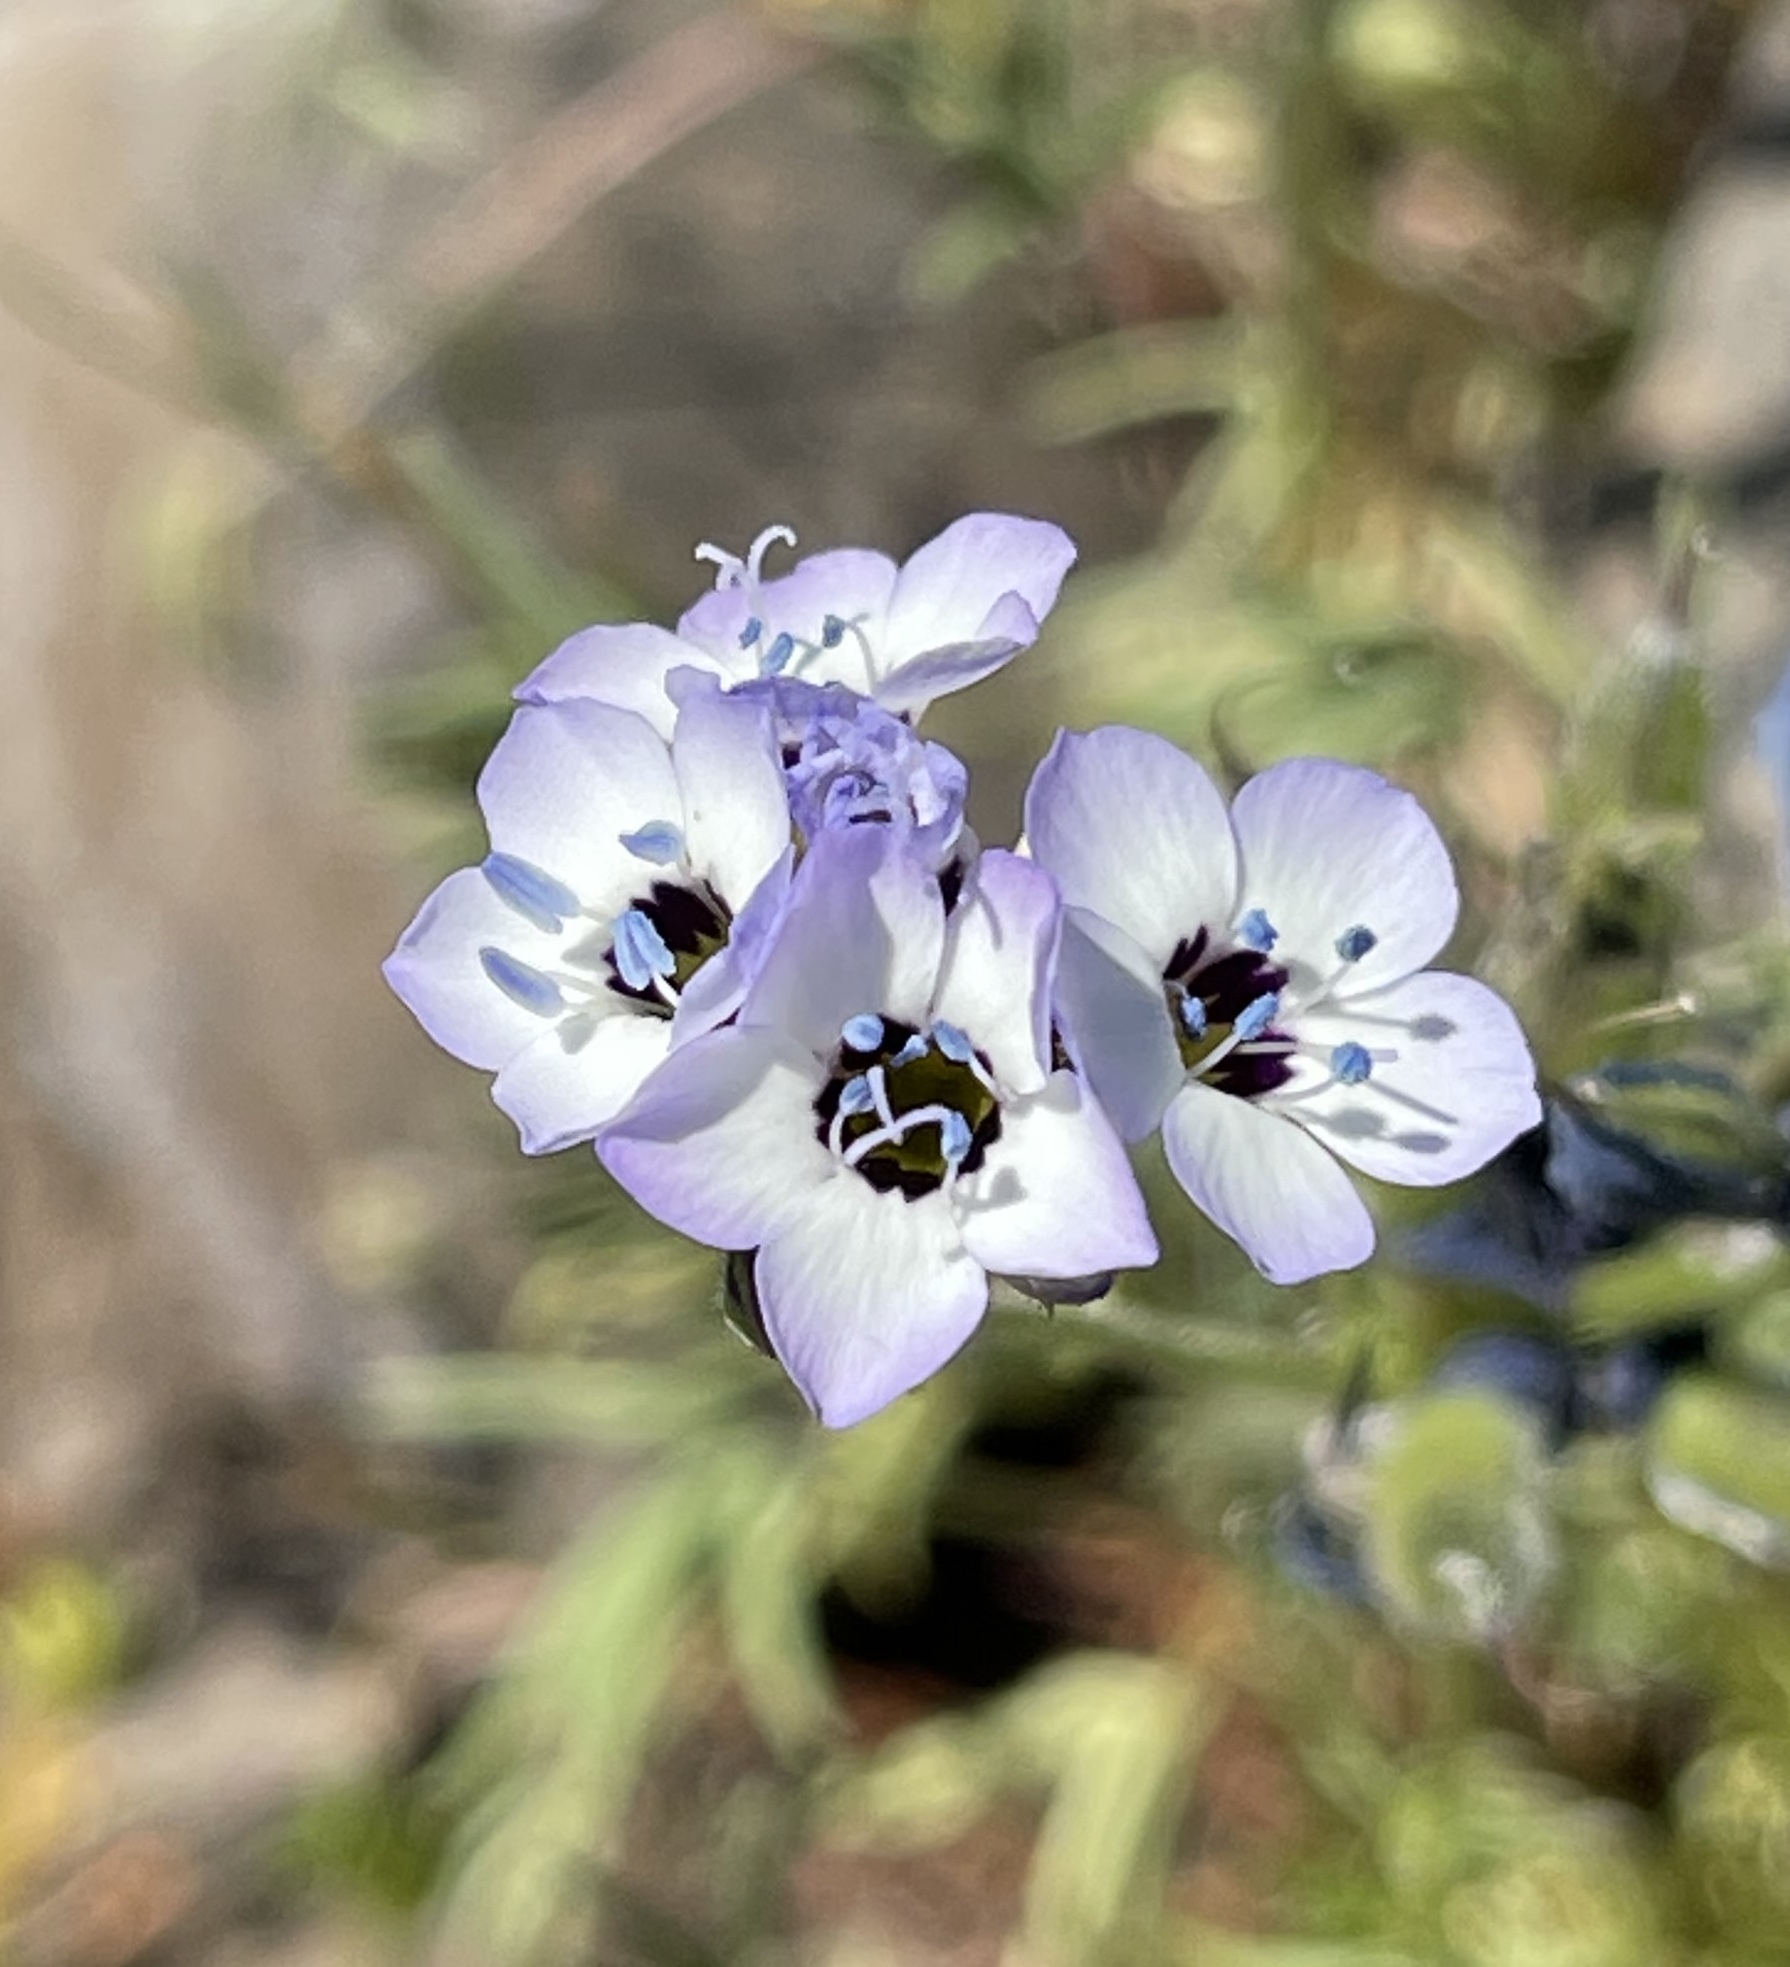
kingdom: Plantae
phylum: Tracheophyta
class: Magnoliopsida
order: Ericales
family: Polemoniaceae
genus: Gilia
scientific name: Gilia tricolor
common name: Bird's-eyes
